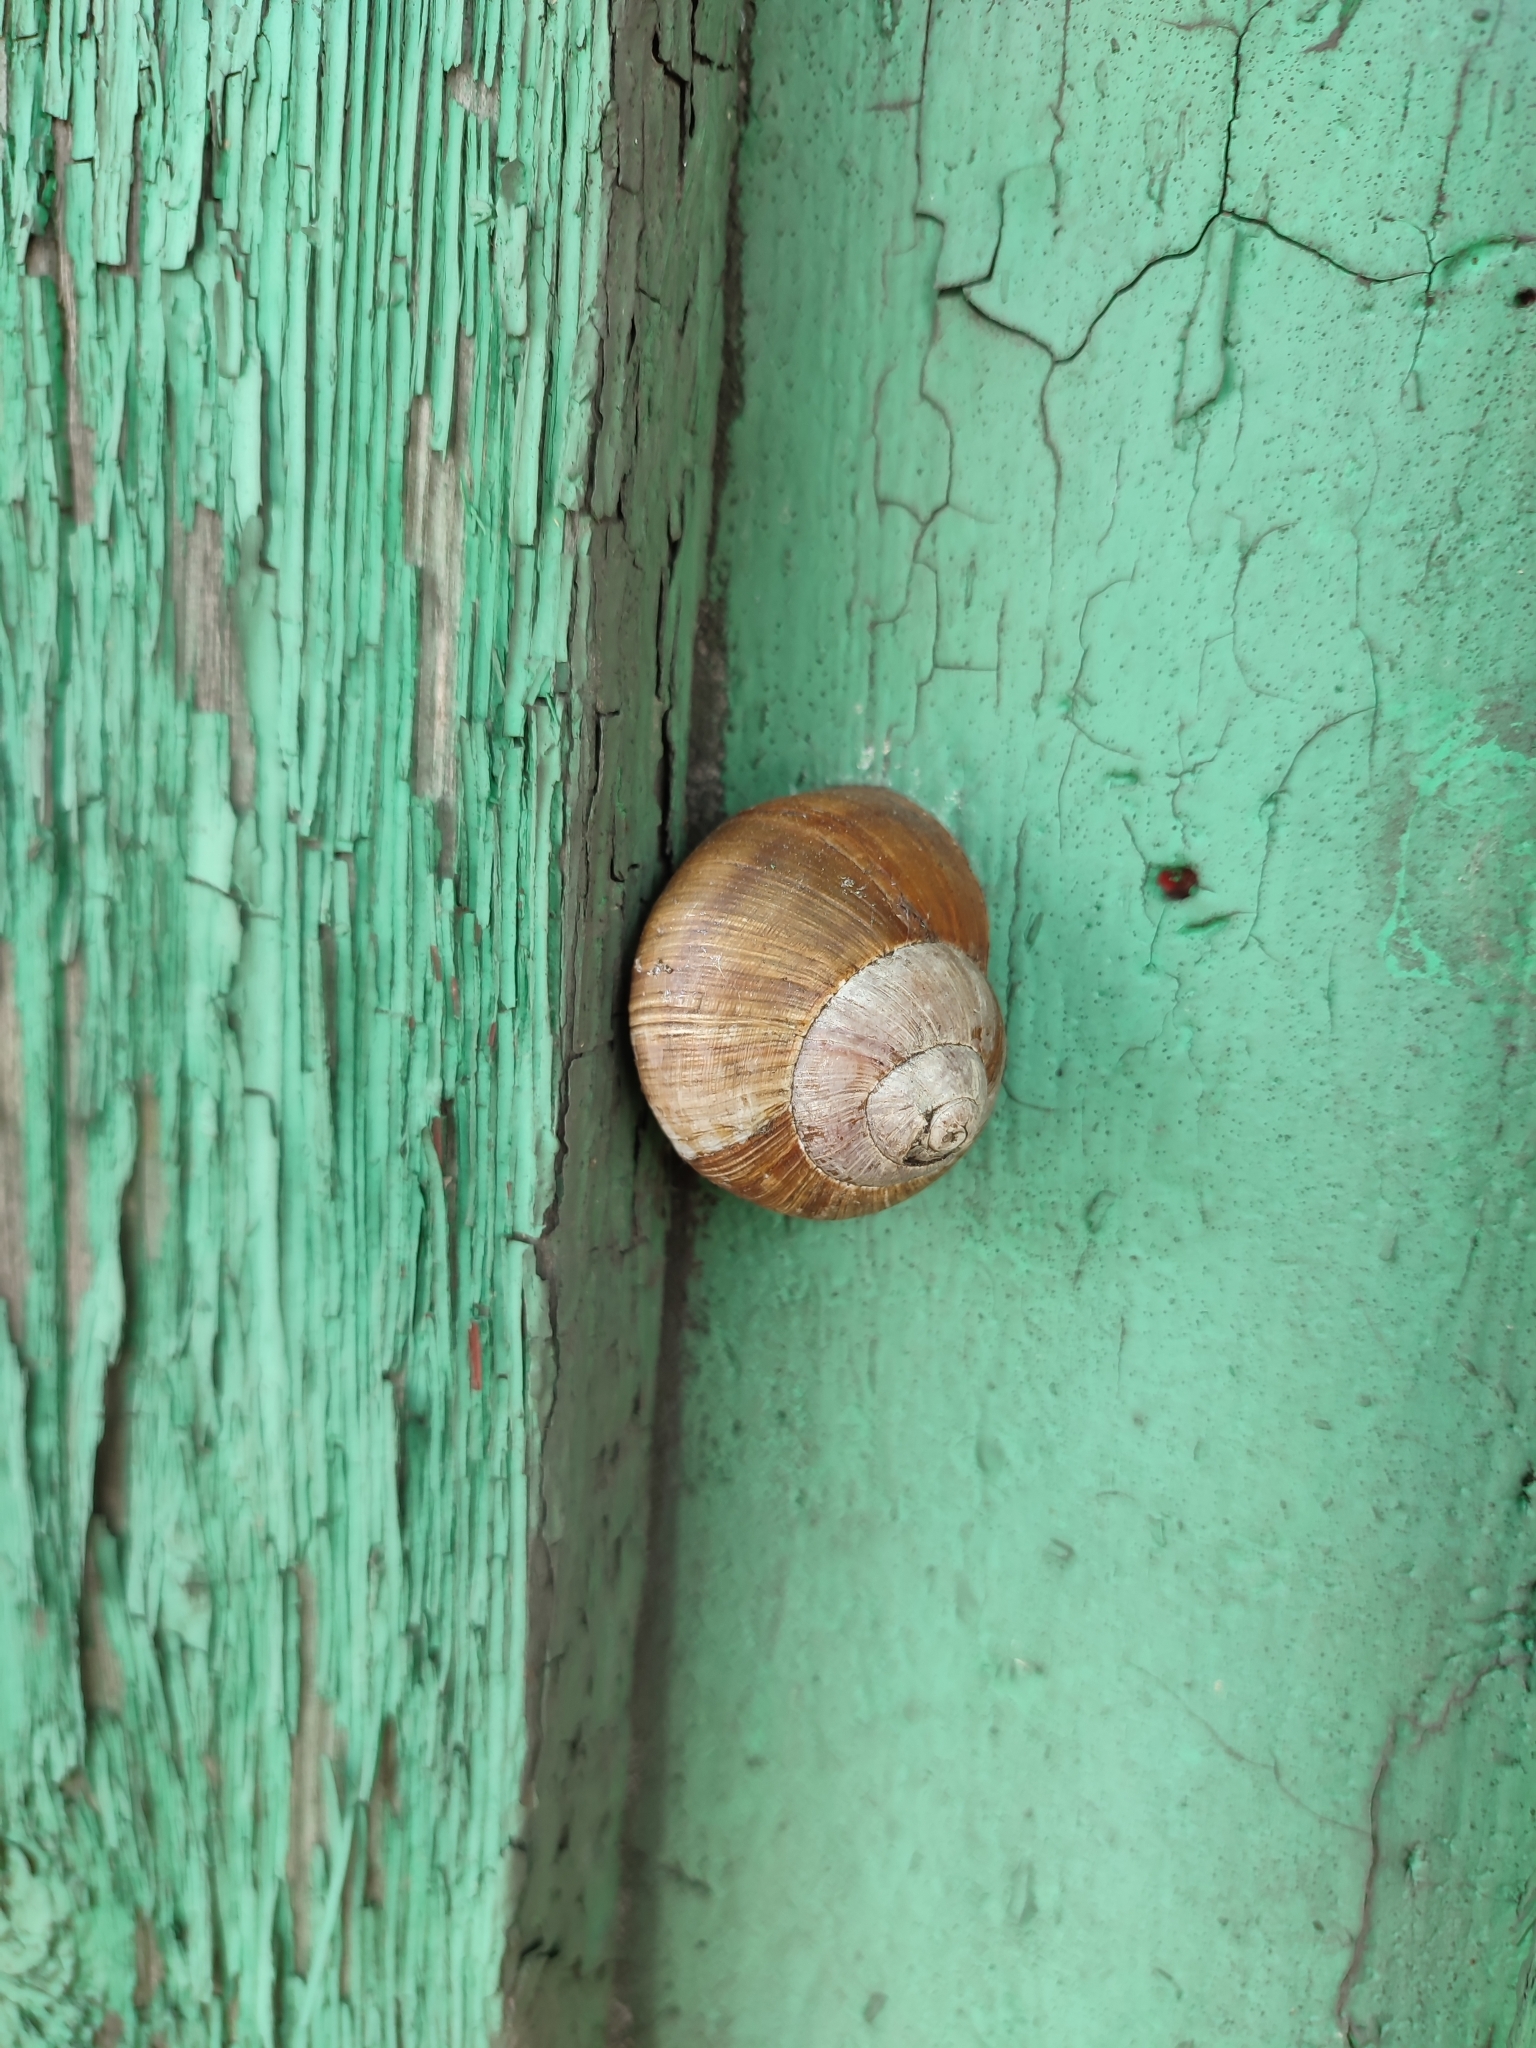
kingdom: Animalia
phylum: Mollusca
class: Gastropoda
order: Stylommatophora
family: Helicidae
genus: Helix
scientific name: Helix pomatia
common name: Roman snail
